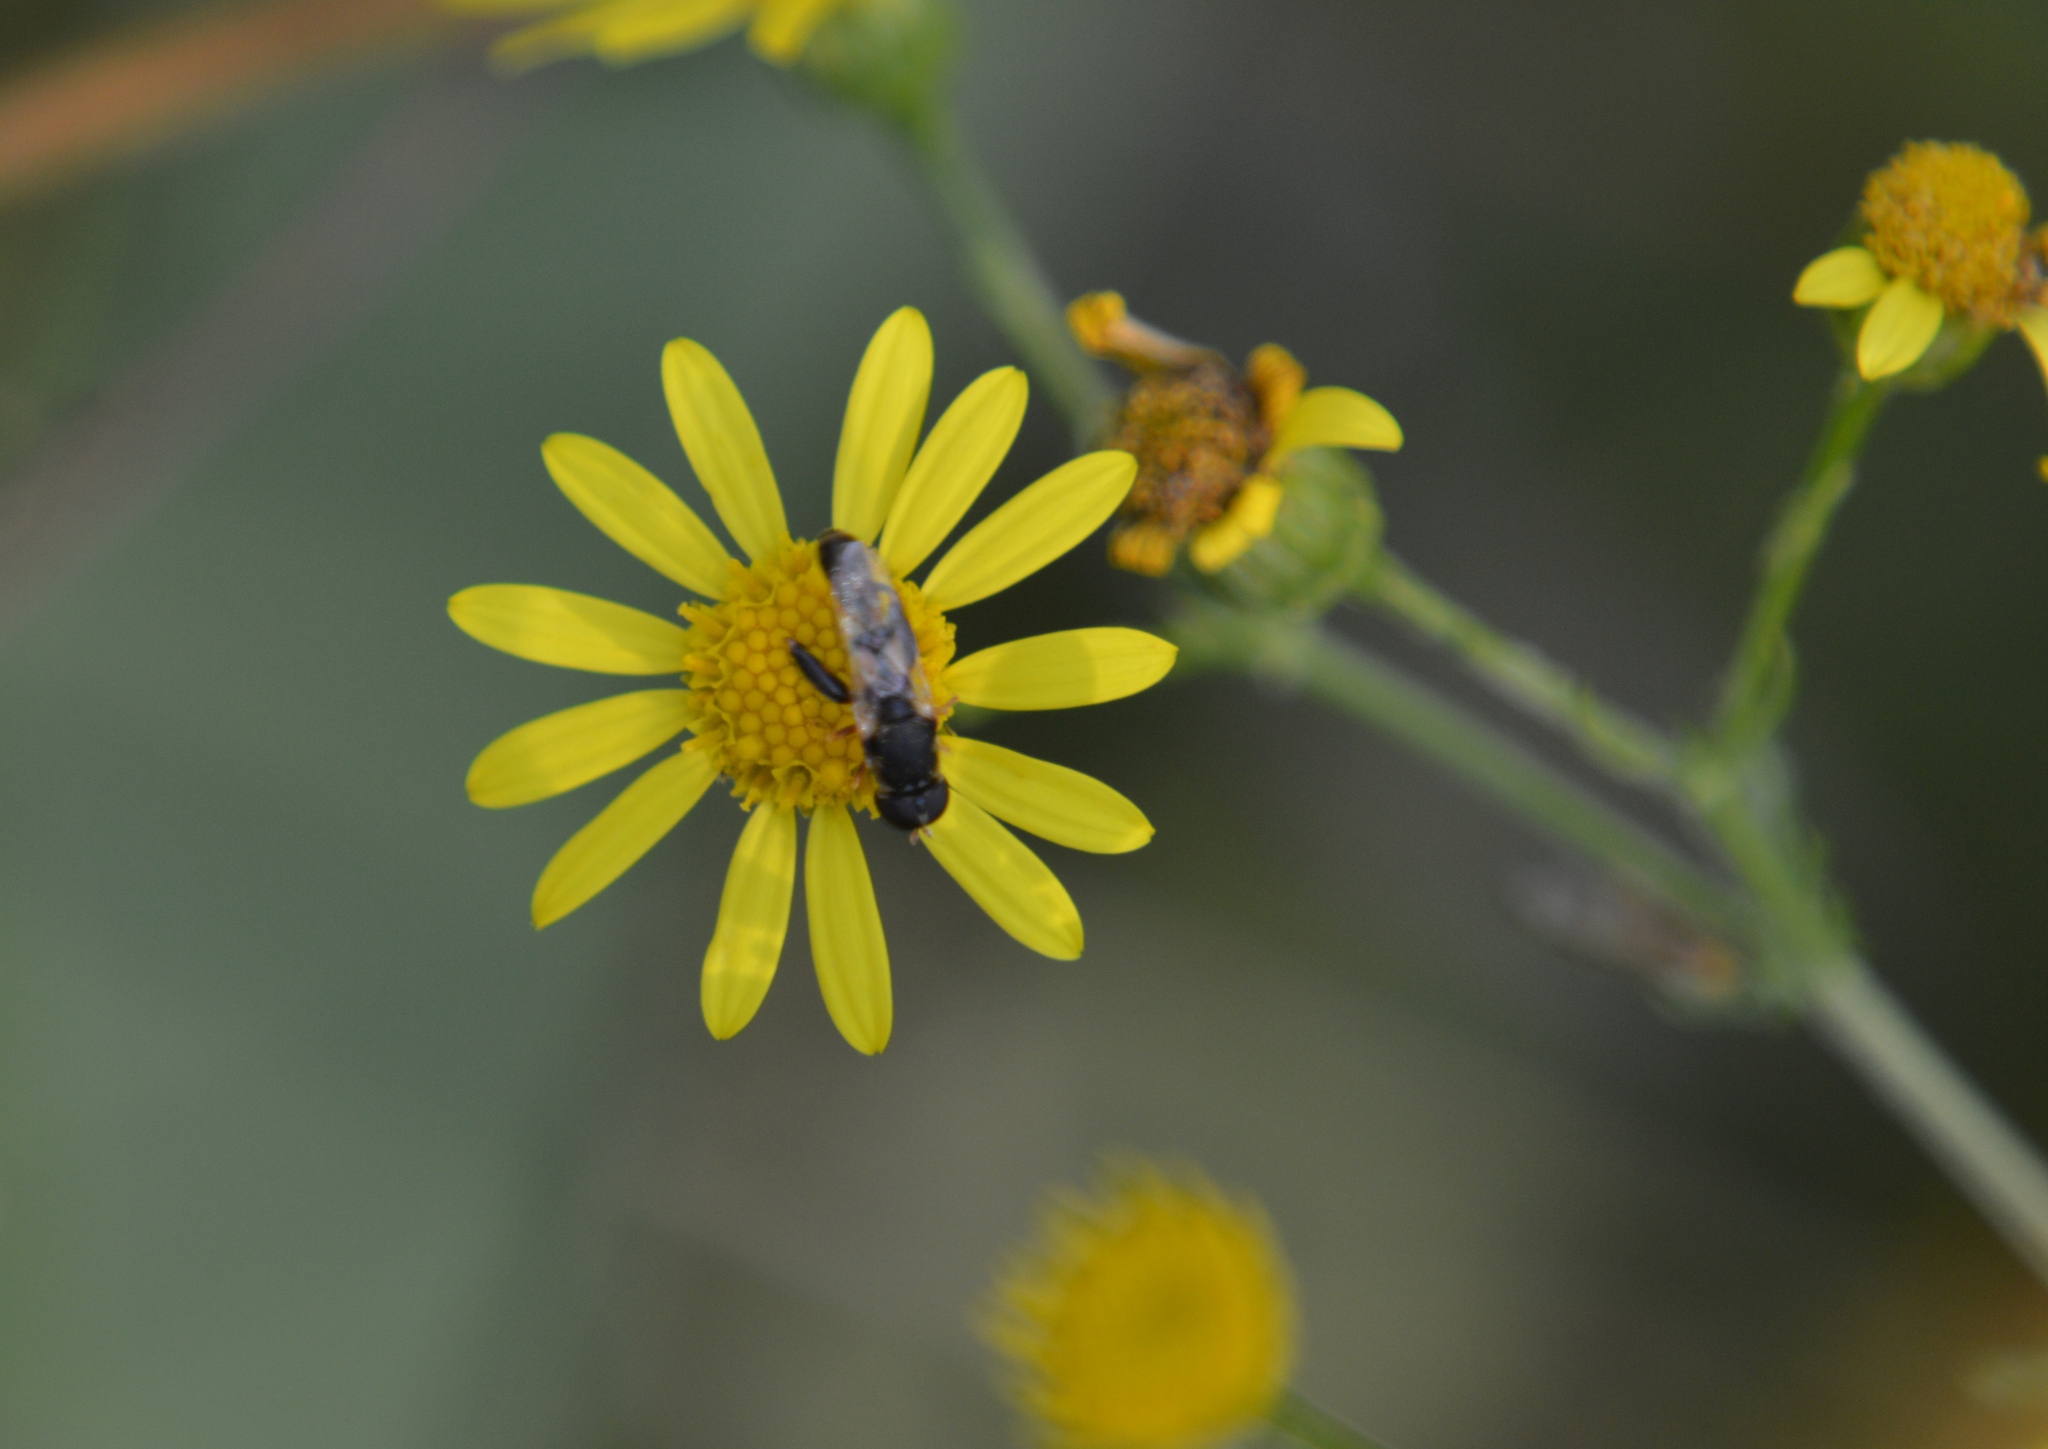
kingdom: Animalia
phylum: Arthropoda
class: Insecta
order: Diptera
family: Syrphidae
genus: Syritta
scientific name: Syritta pipiens
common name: Hover fly
